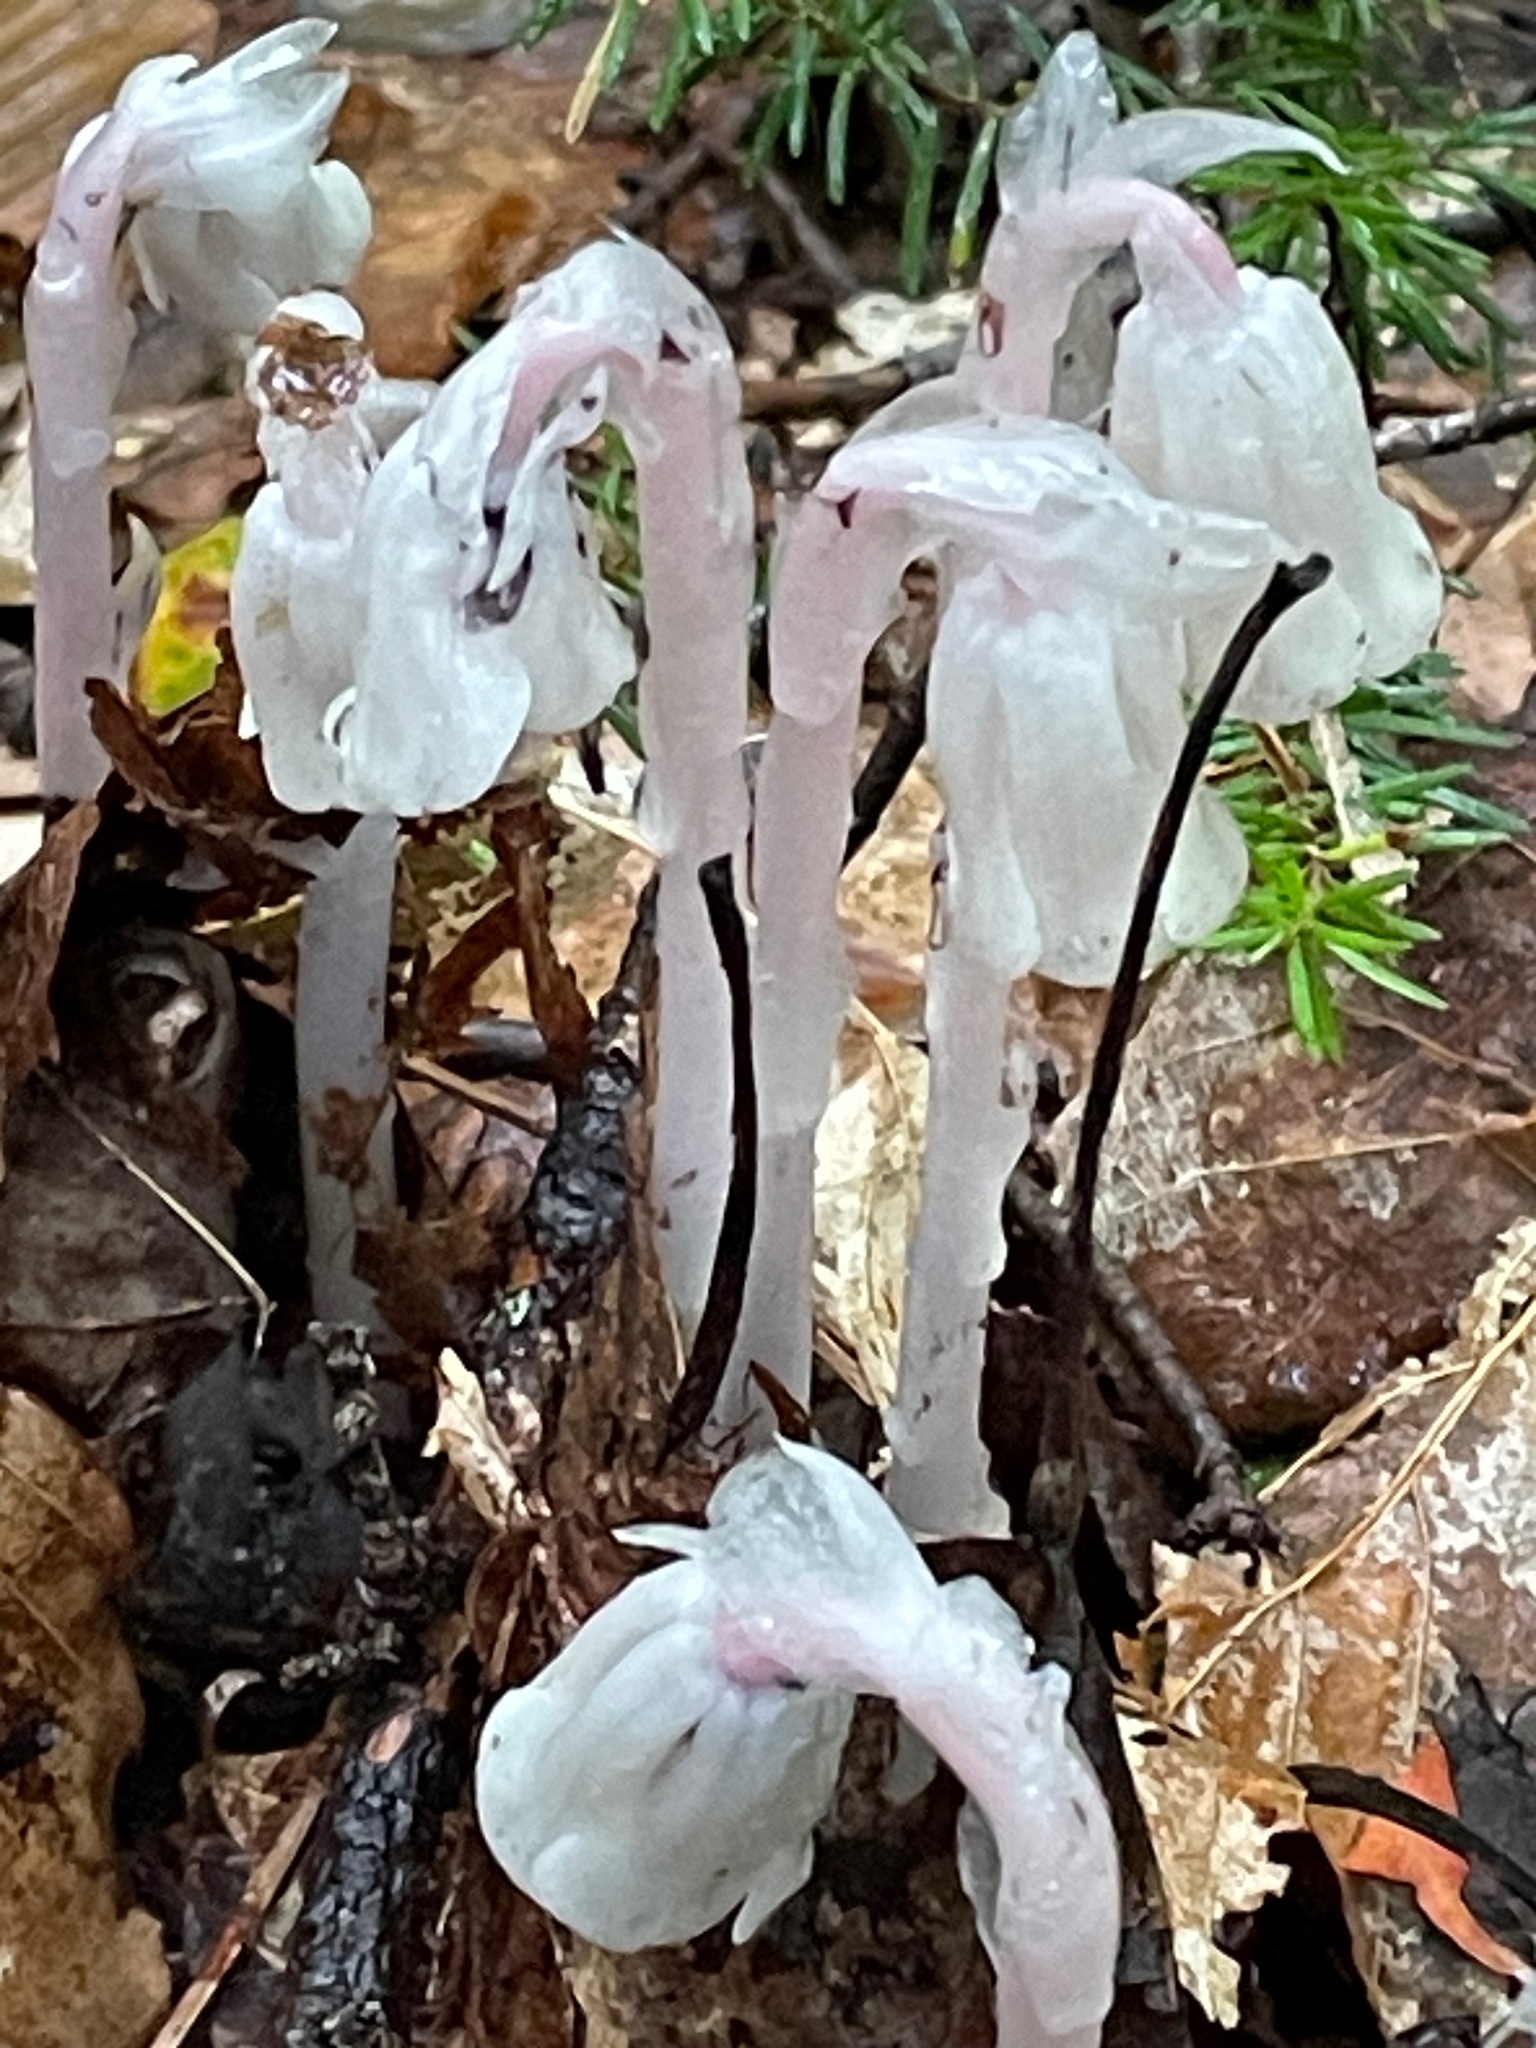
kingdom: Plantae
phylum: Tracheophyta
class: Magnoliopsida
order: Ericales
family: Ericaceae
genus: Monotropa
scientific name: Monotropa uniflora
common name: Convulsion root
